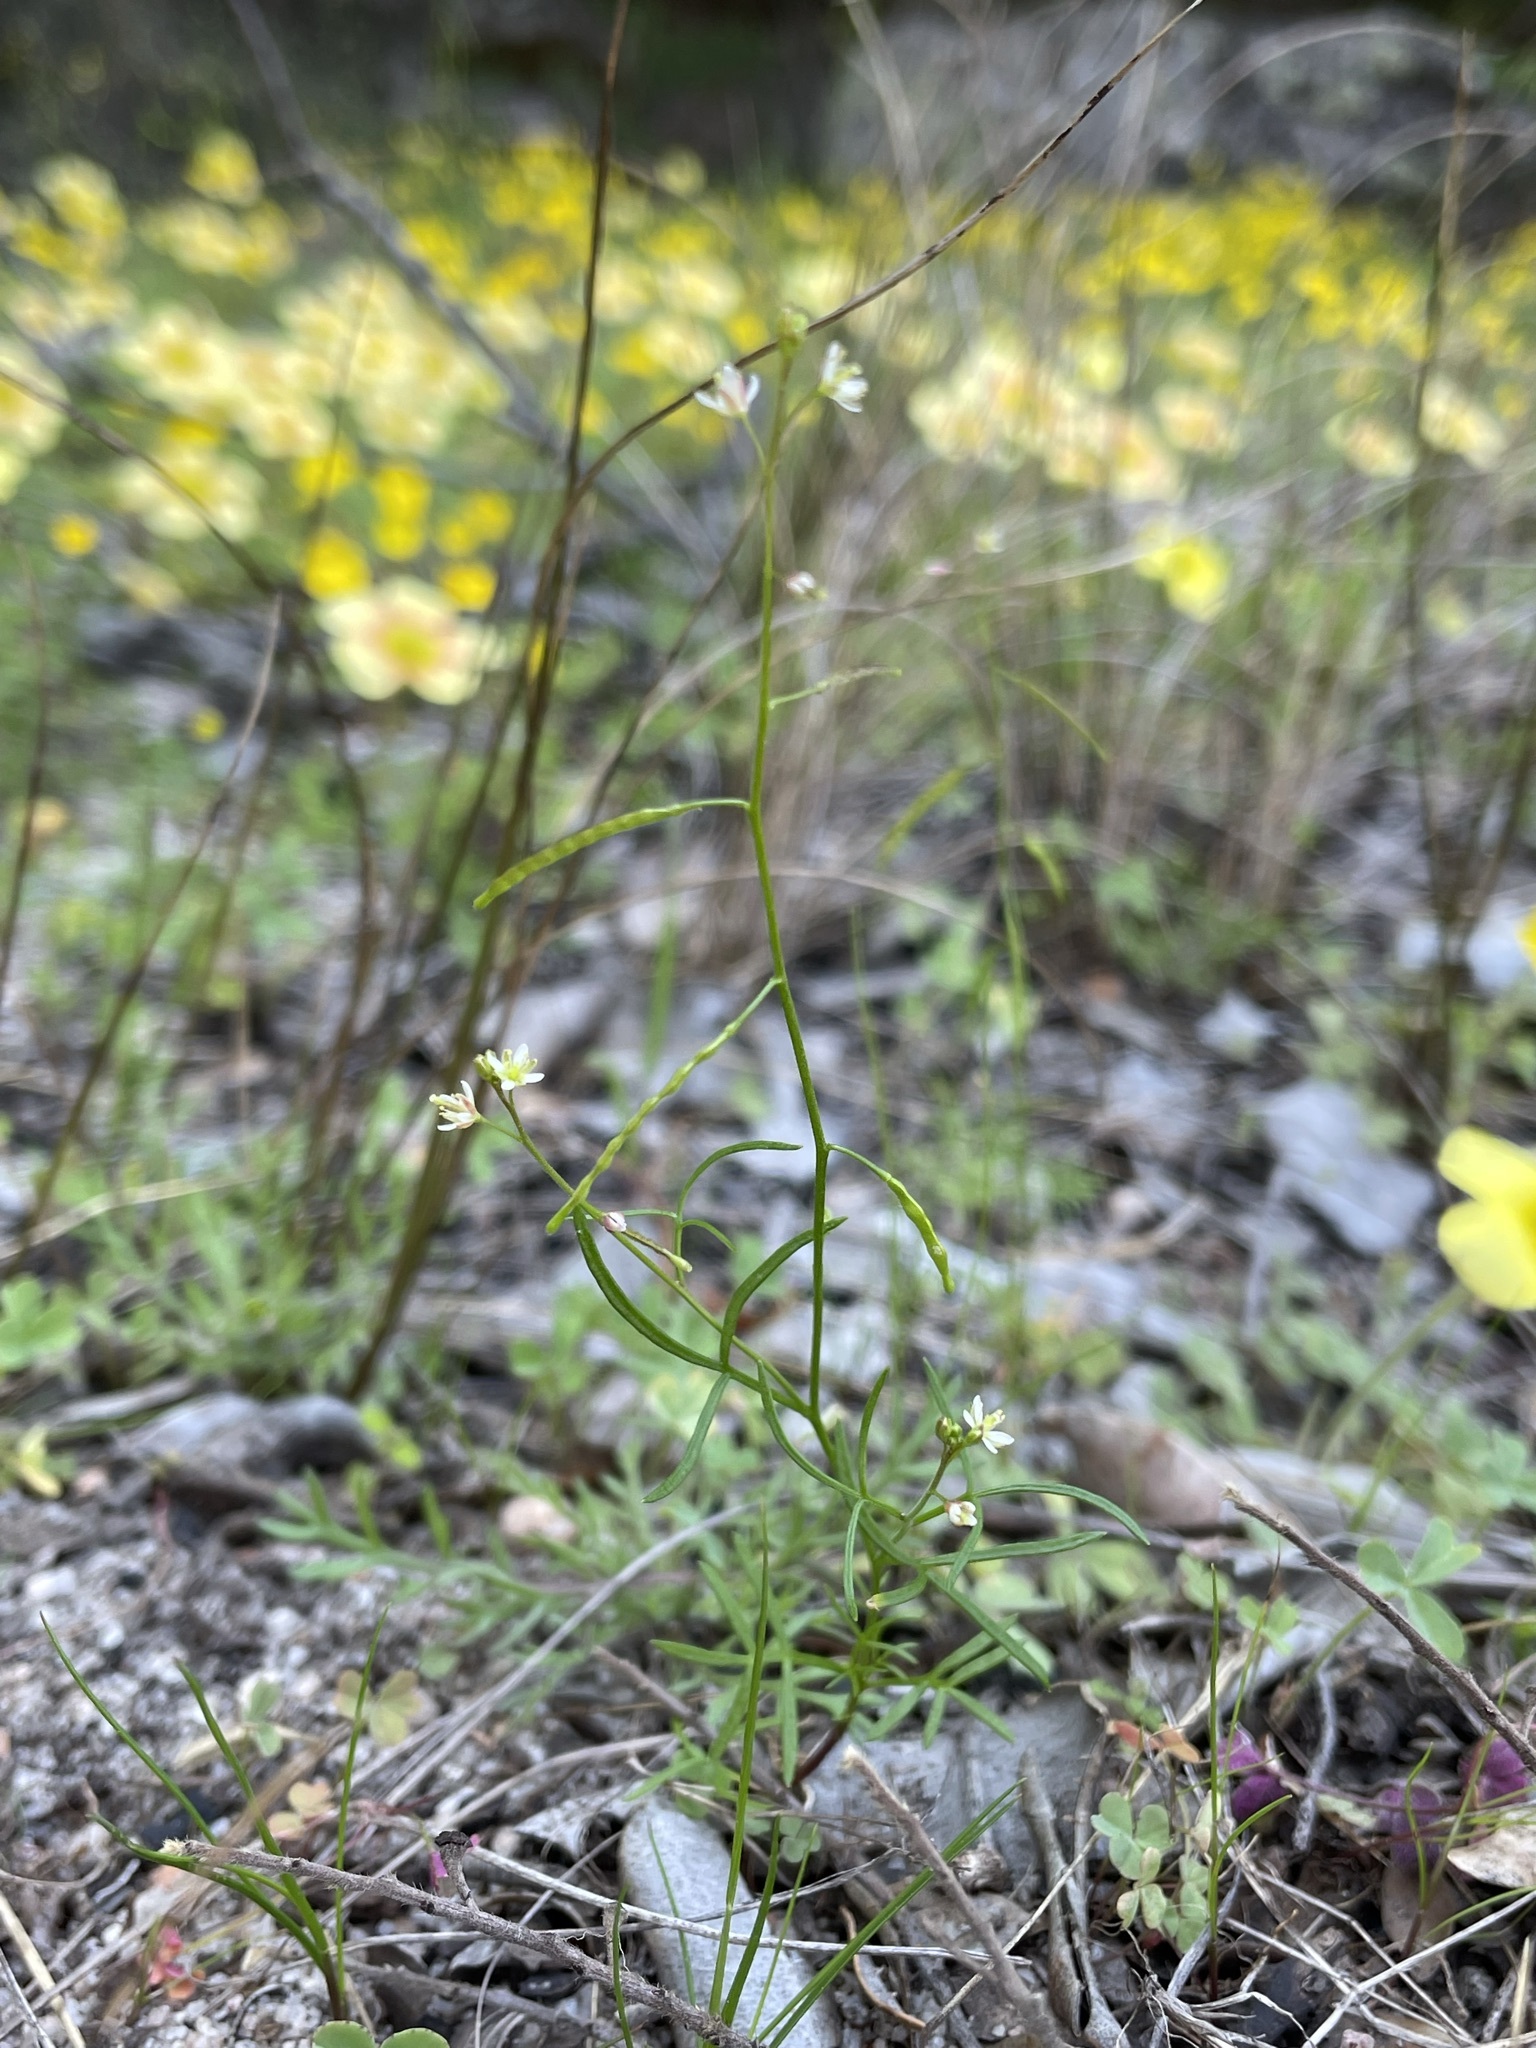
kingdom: Plantae
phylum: Tracheophyta
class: Magnoliopsida
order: Brassicales
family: Brassicaceae
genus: Heliophila
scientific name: Heliophila pectinata
